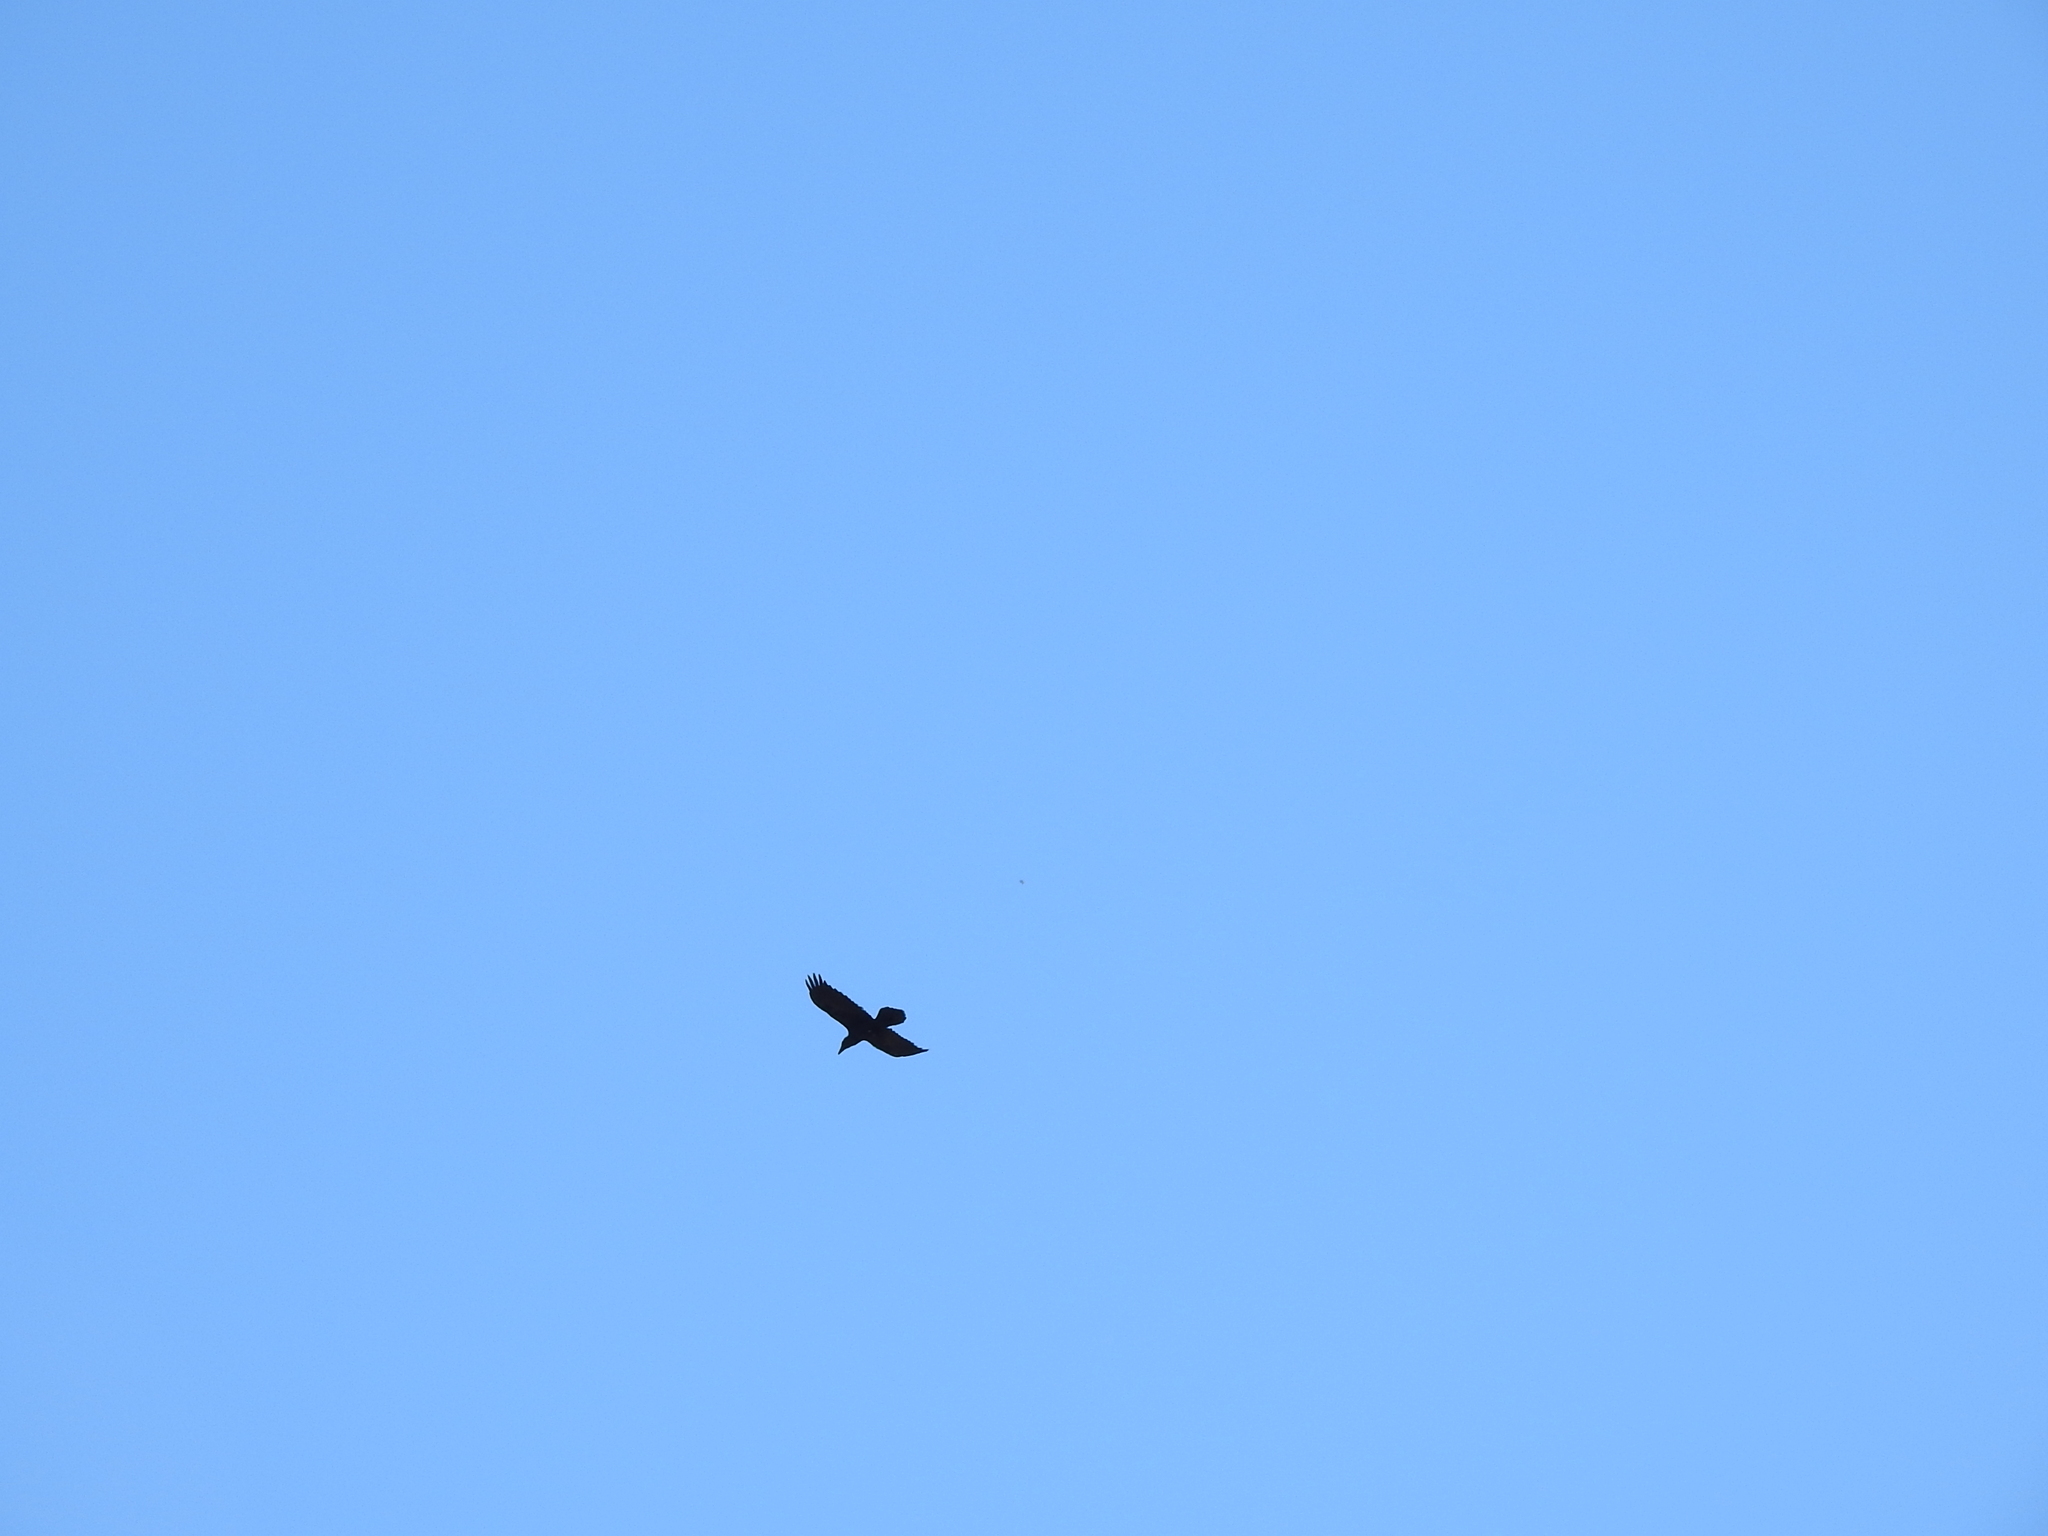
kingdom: Animalia
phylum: Chordata
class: Aves
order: Passeriformes
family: Corvidae
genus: Corvus
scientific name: Corvus corax
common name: Common raven
